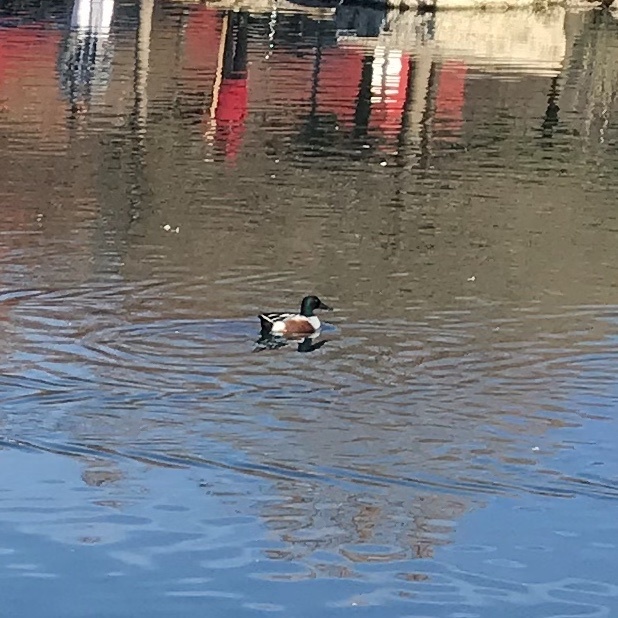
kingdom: Animalia
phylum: Chordata
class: Aves
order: Anseriformes
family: Anatidae
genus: Spatula
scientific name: Spatula clypeata
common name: Northern shoveler
